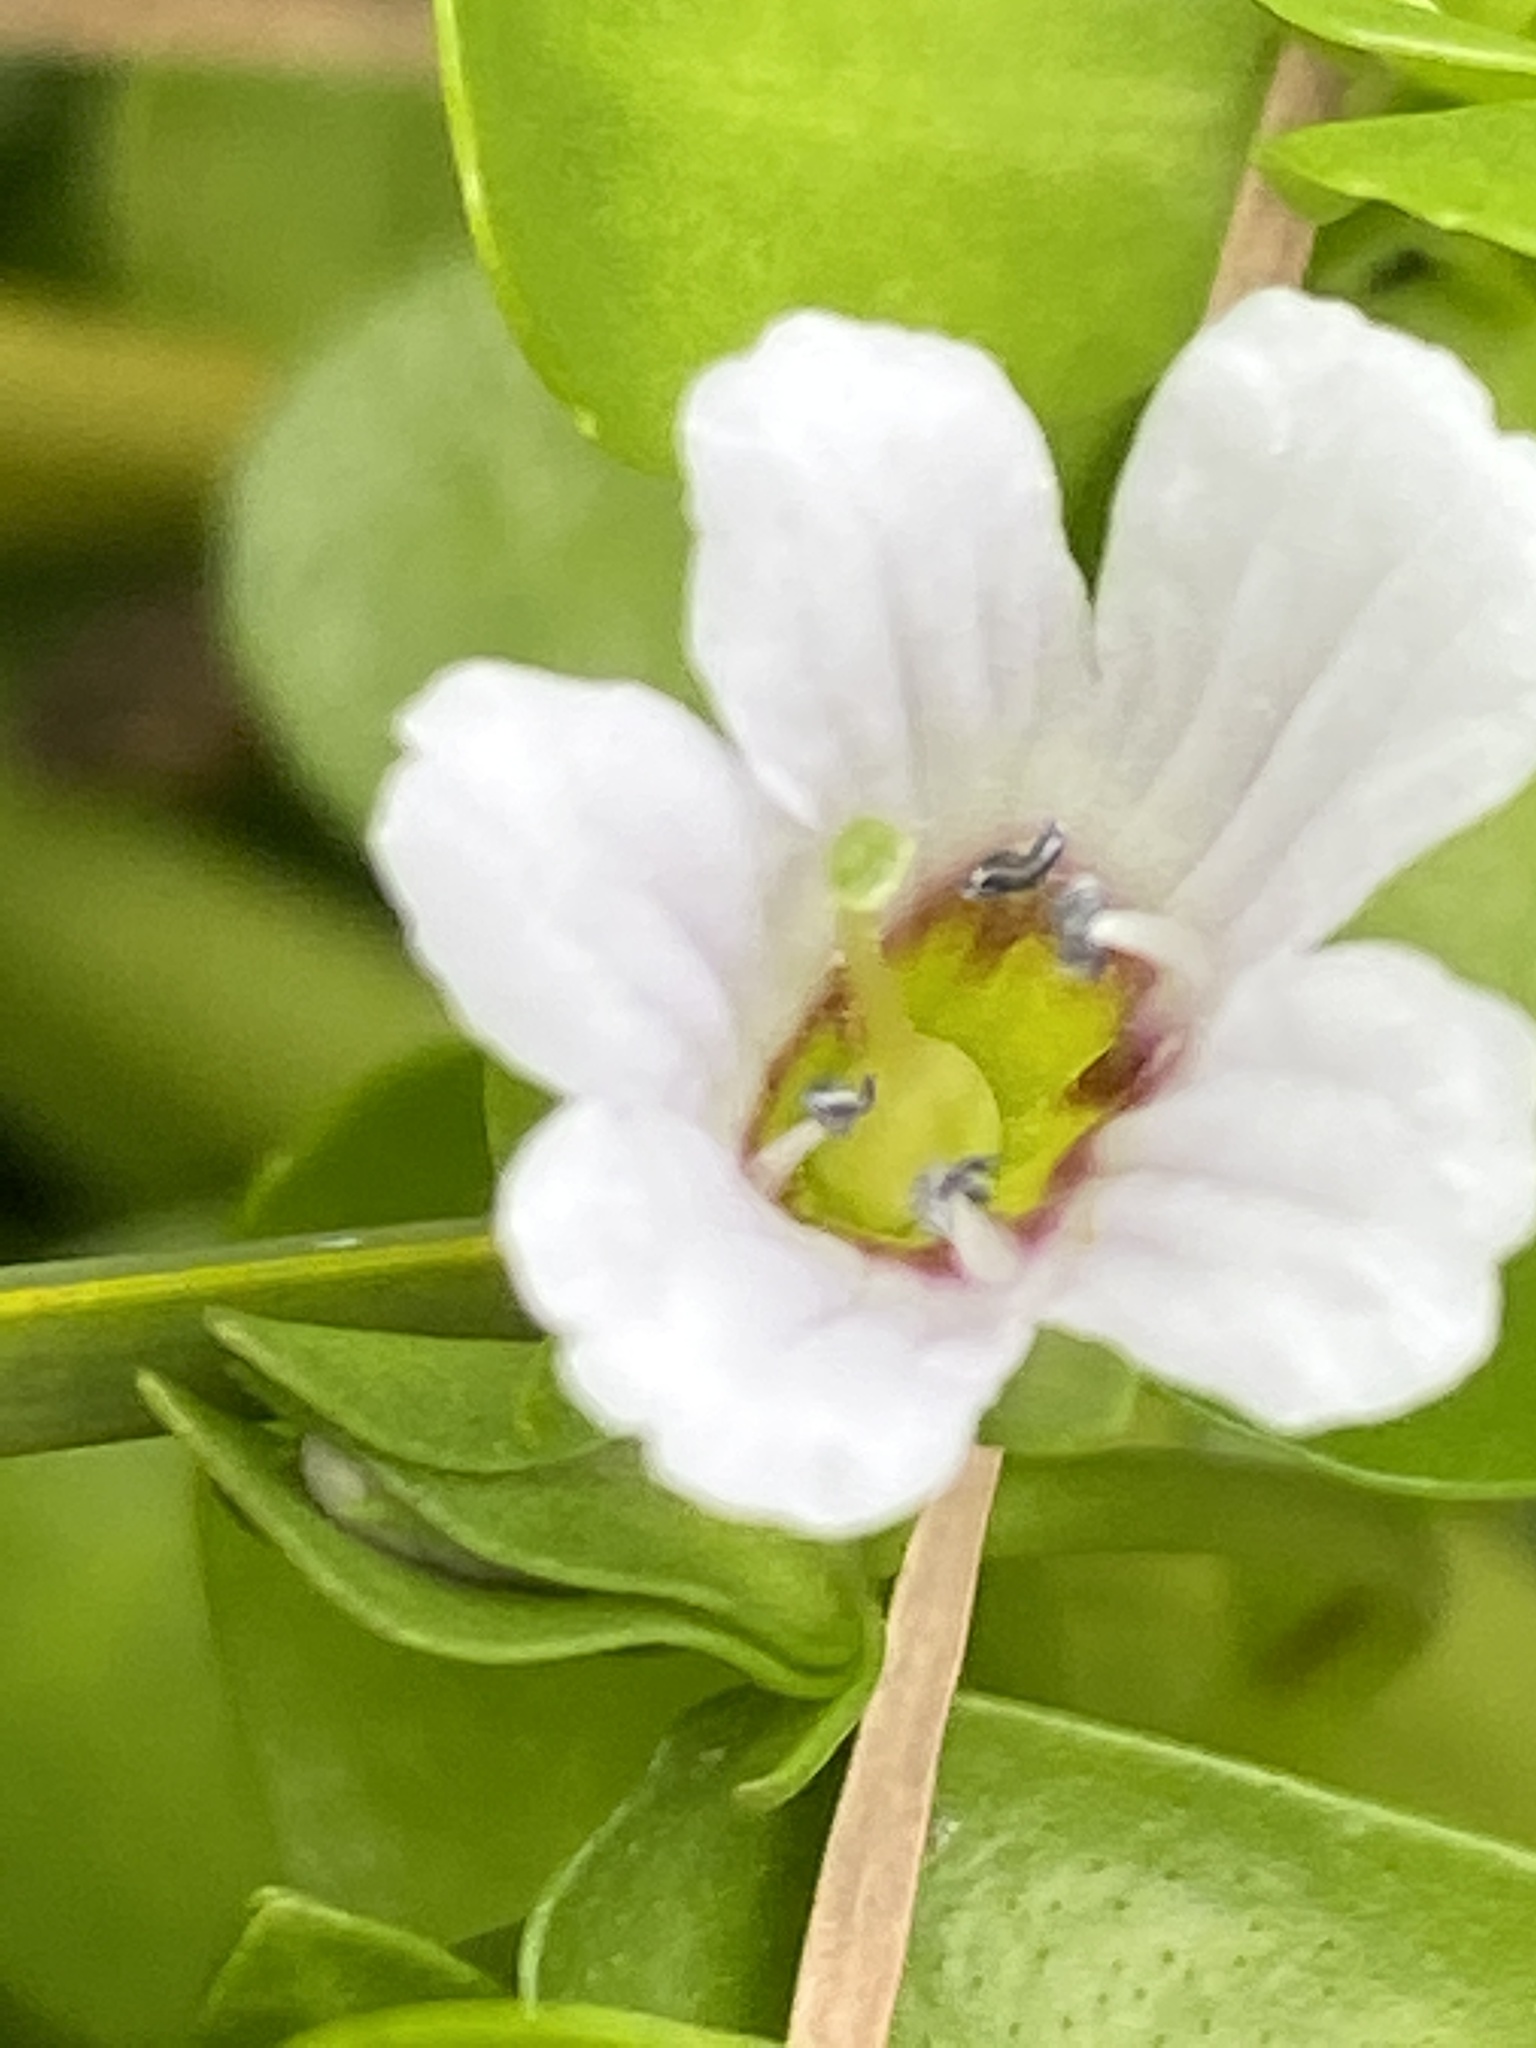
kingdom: Plantae
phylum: Tracheophyta
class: Magnoliopsida
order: Lamiales
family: Plantaginaceae
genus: Bacopa
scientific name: Bacopa monnieri
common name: Indian-pennywort
